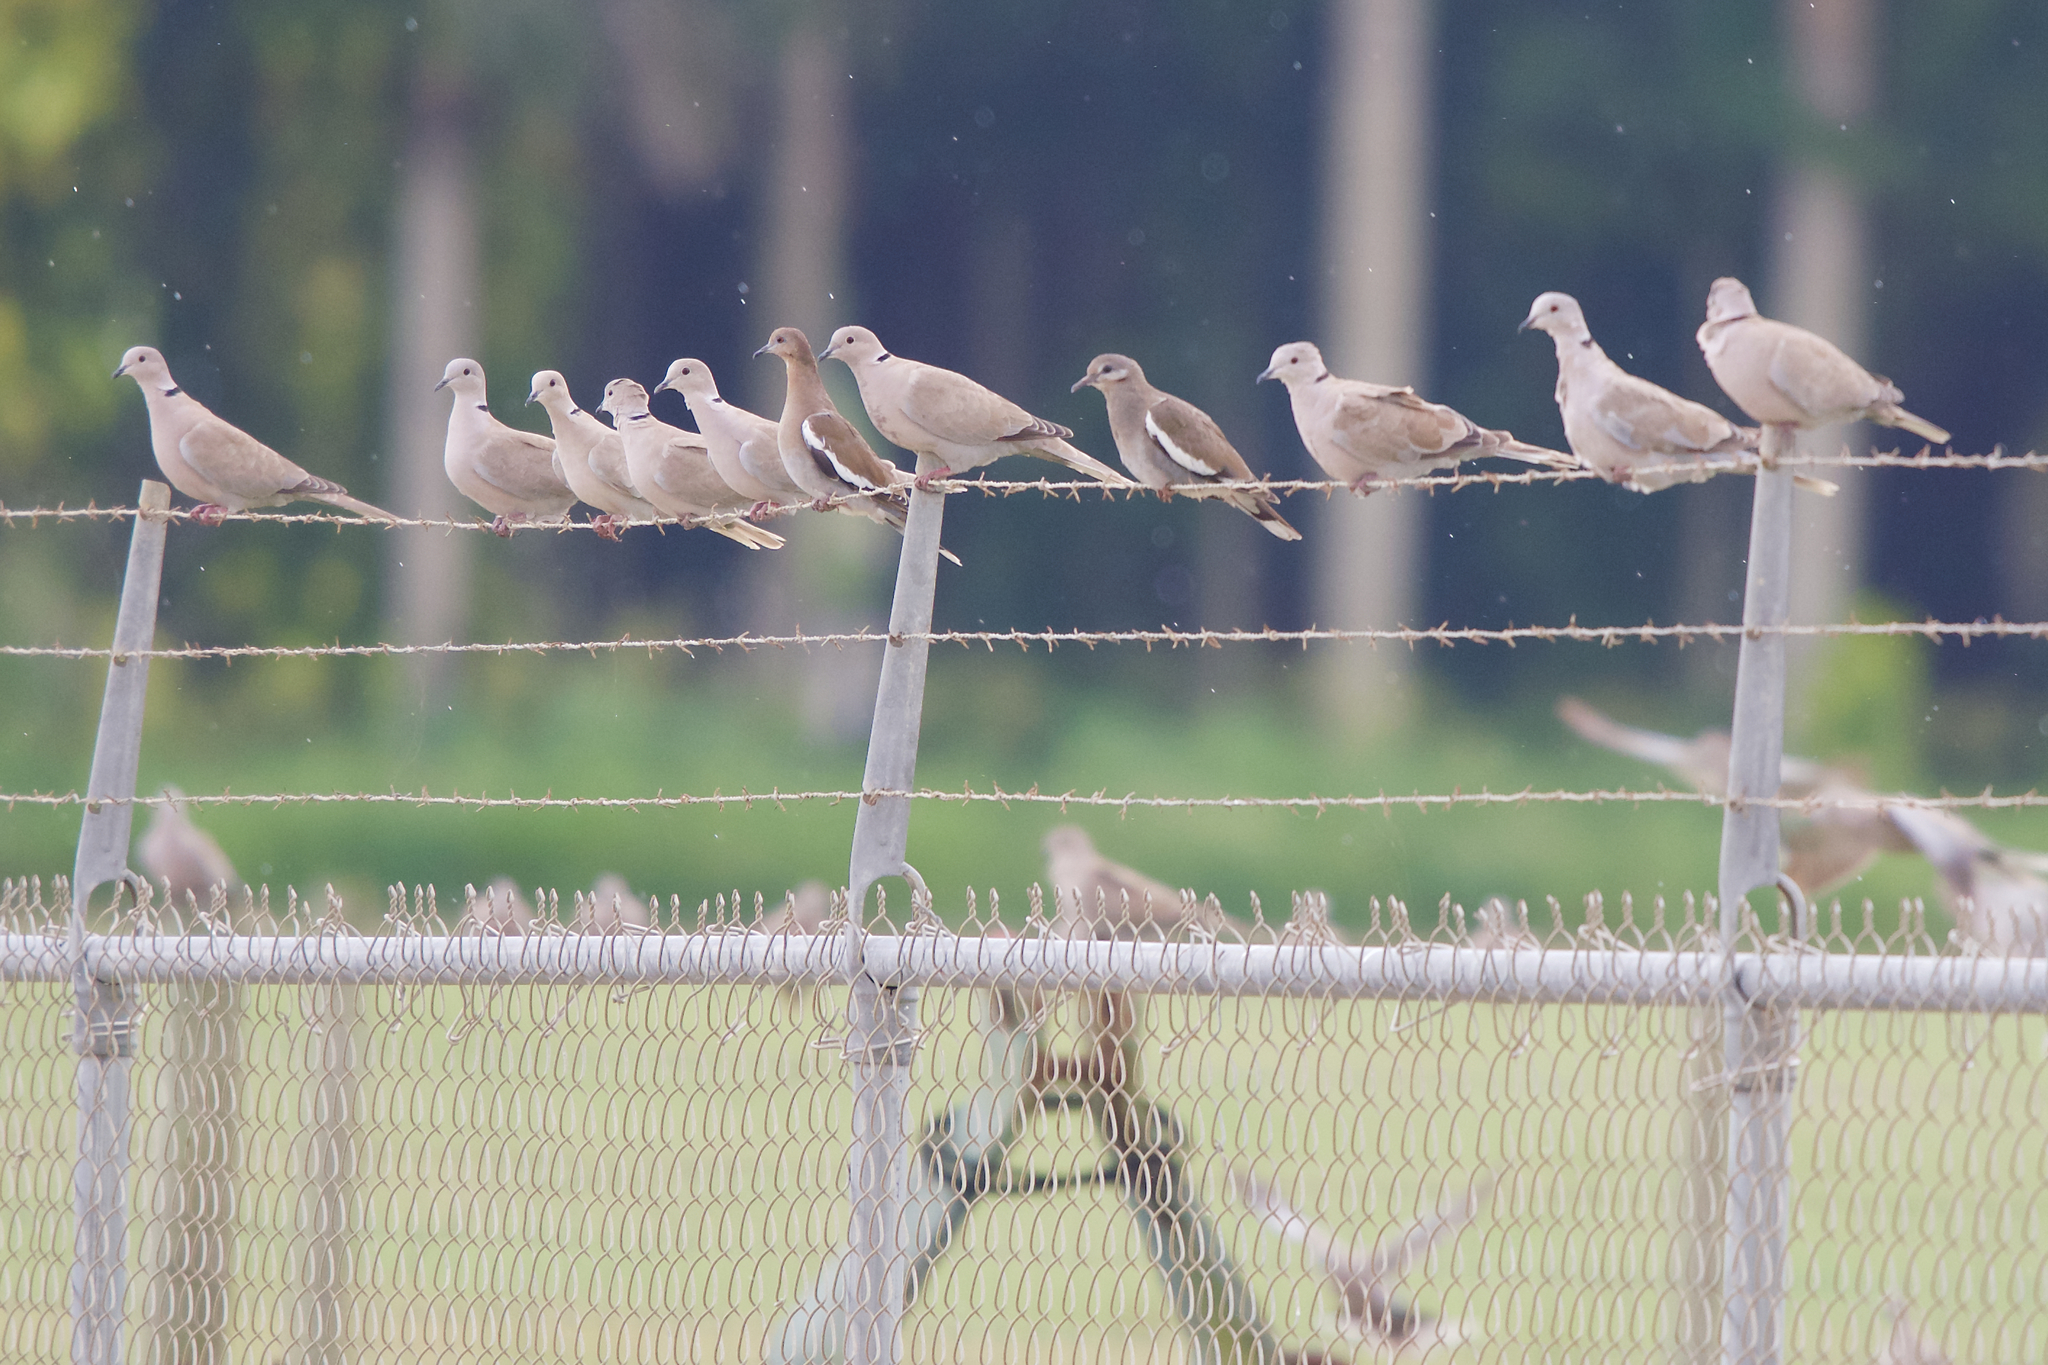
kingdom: Animalia
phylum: Chordata
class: Aves
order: Columbiformes
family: Columbidae
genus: Zenaida
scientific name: Zenaida asiatica
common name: White-winged dove
